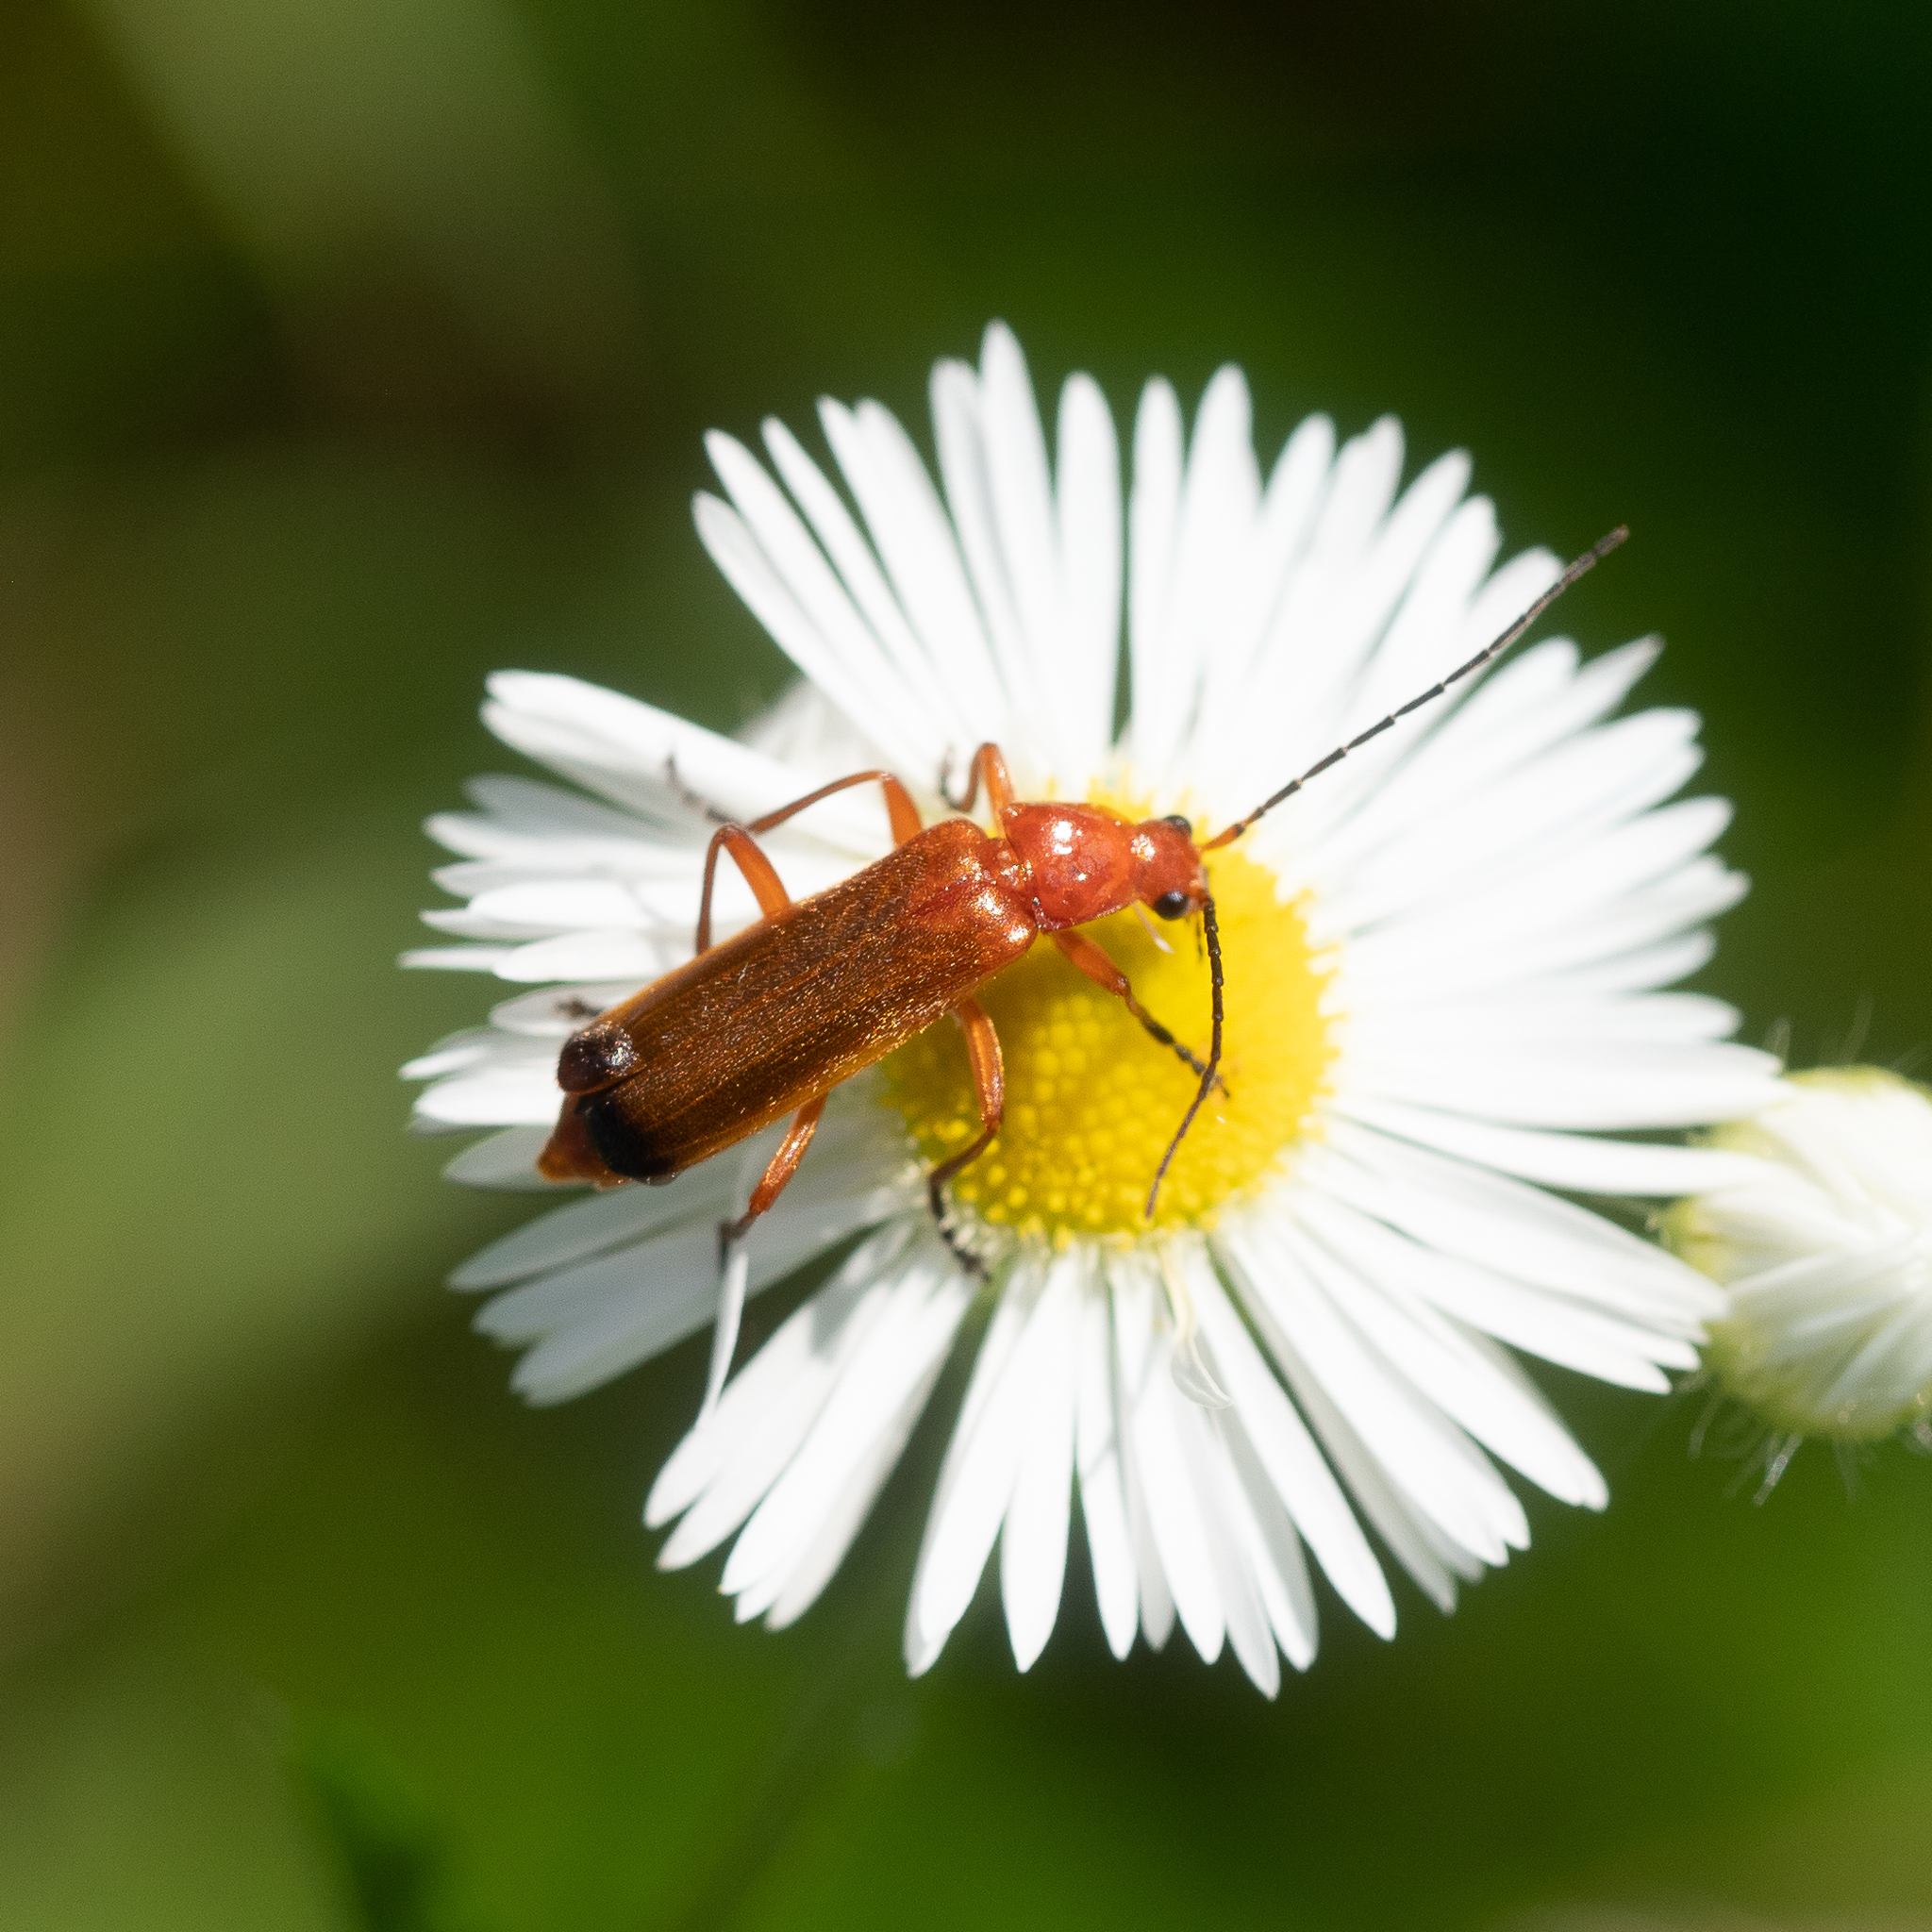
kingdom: Animalia
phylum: Arthropoda
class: Insecta
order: Coleoptera
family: Cantharidae
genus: Rhagonycha
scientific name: Rhagonycha fulva
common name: Common red soldier beetle
